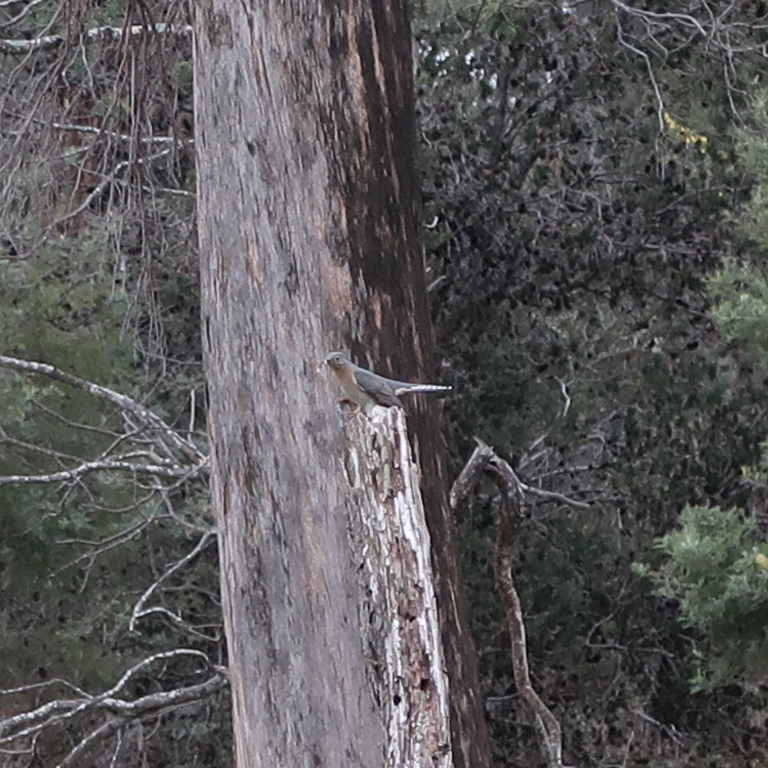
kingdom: Animalia
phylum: Chordata
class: Aves
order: Cuculiformes
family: Cuculidae
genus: Cacomantis
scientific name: Cacomantis flabelliformis
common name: Fan-tailed cuckoo
